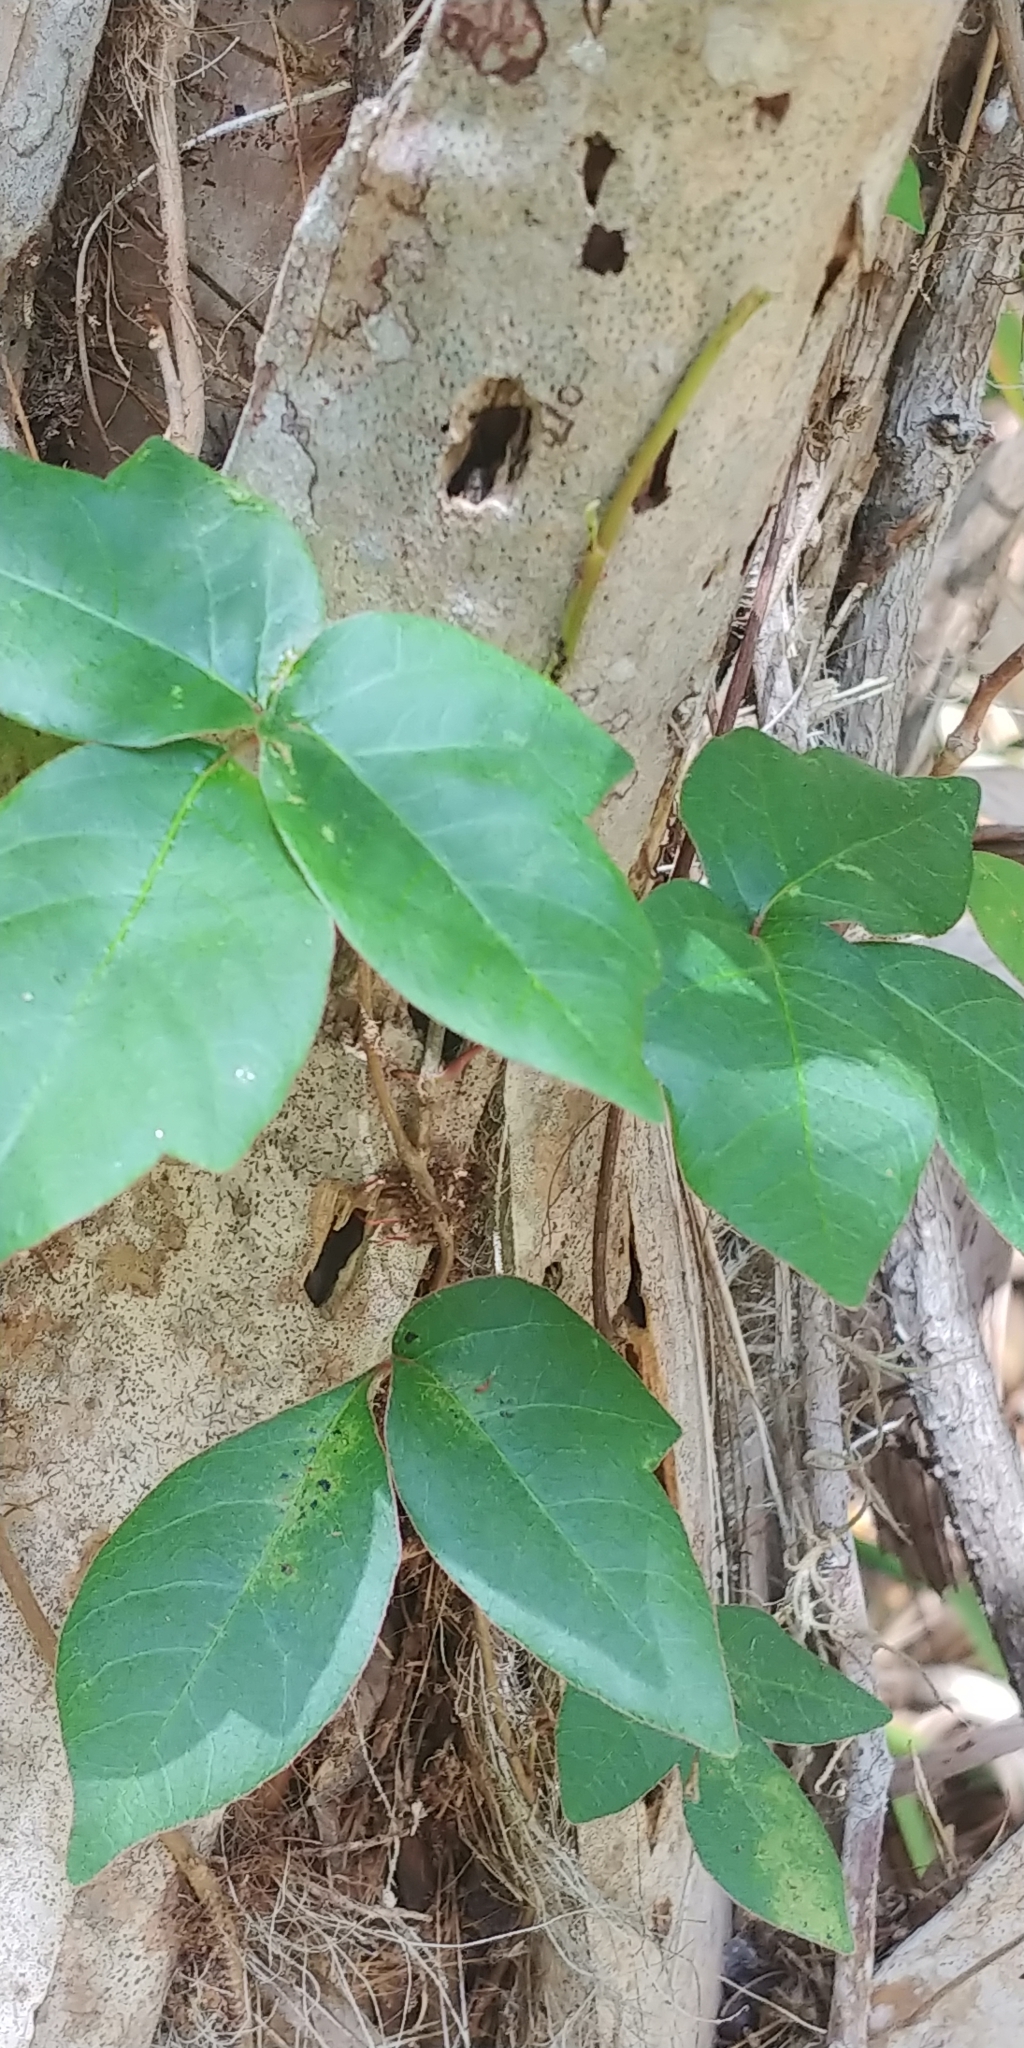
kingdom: Plantae
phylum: Tracheophyta
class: Magnoliopsida
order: Sapindales
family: Anacardiaceae
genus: Toxicodendron
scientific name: Toxicodendron radicans
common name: Poison ivy
